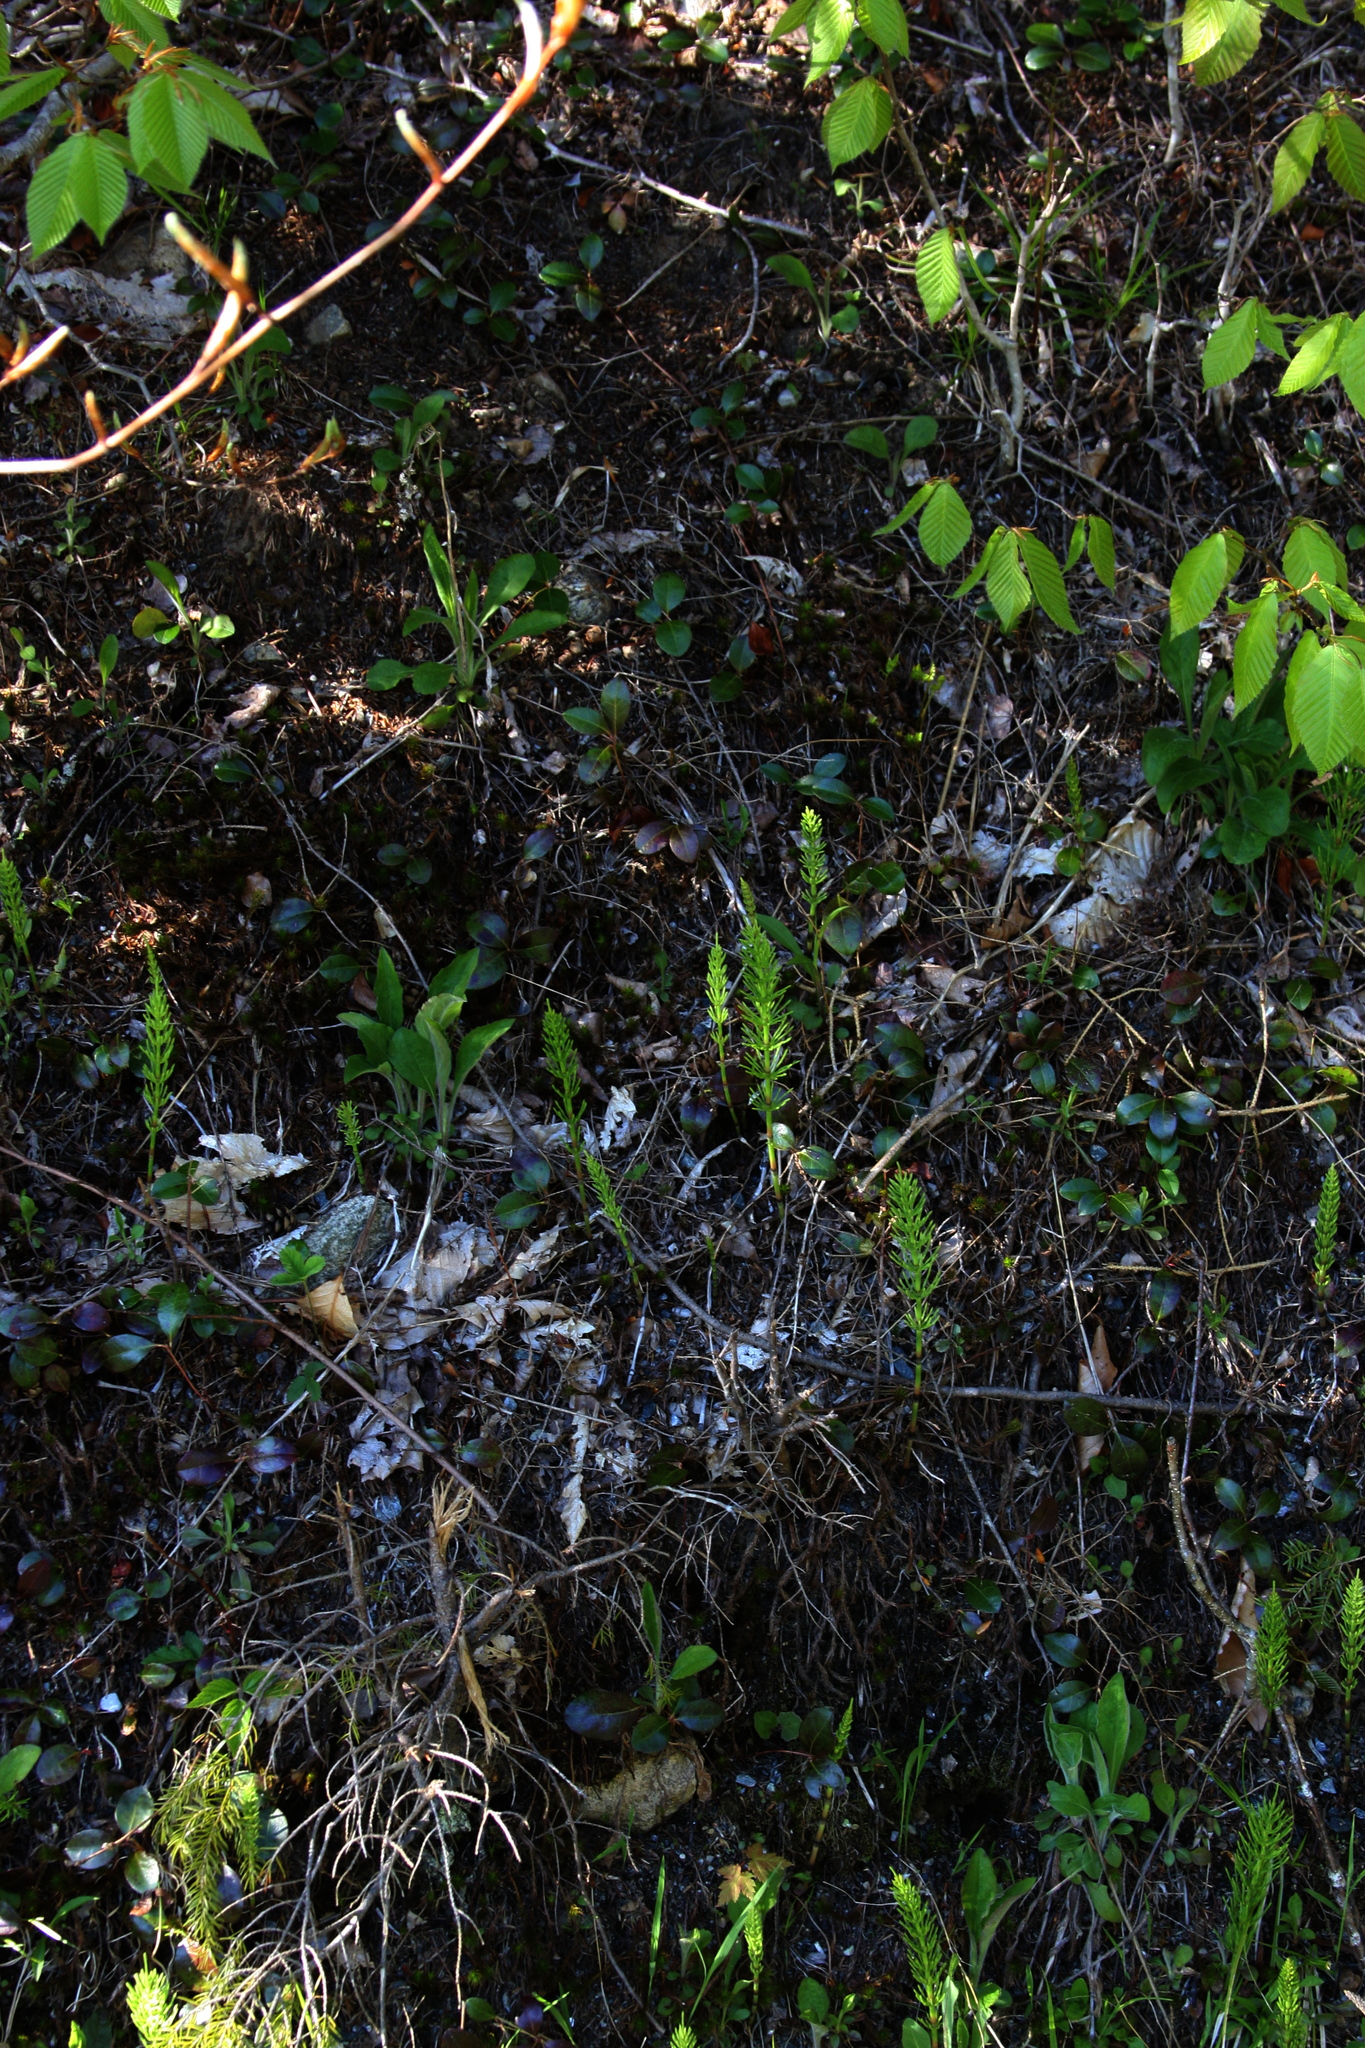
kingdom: Plantae
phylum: Tracheophyta
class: Magnoliopsida
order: Ericales
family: Ericaceae
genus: Gaultheria
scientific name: Gaultheria procumbens
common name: Checkerberry
